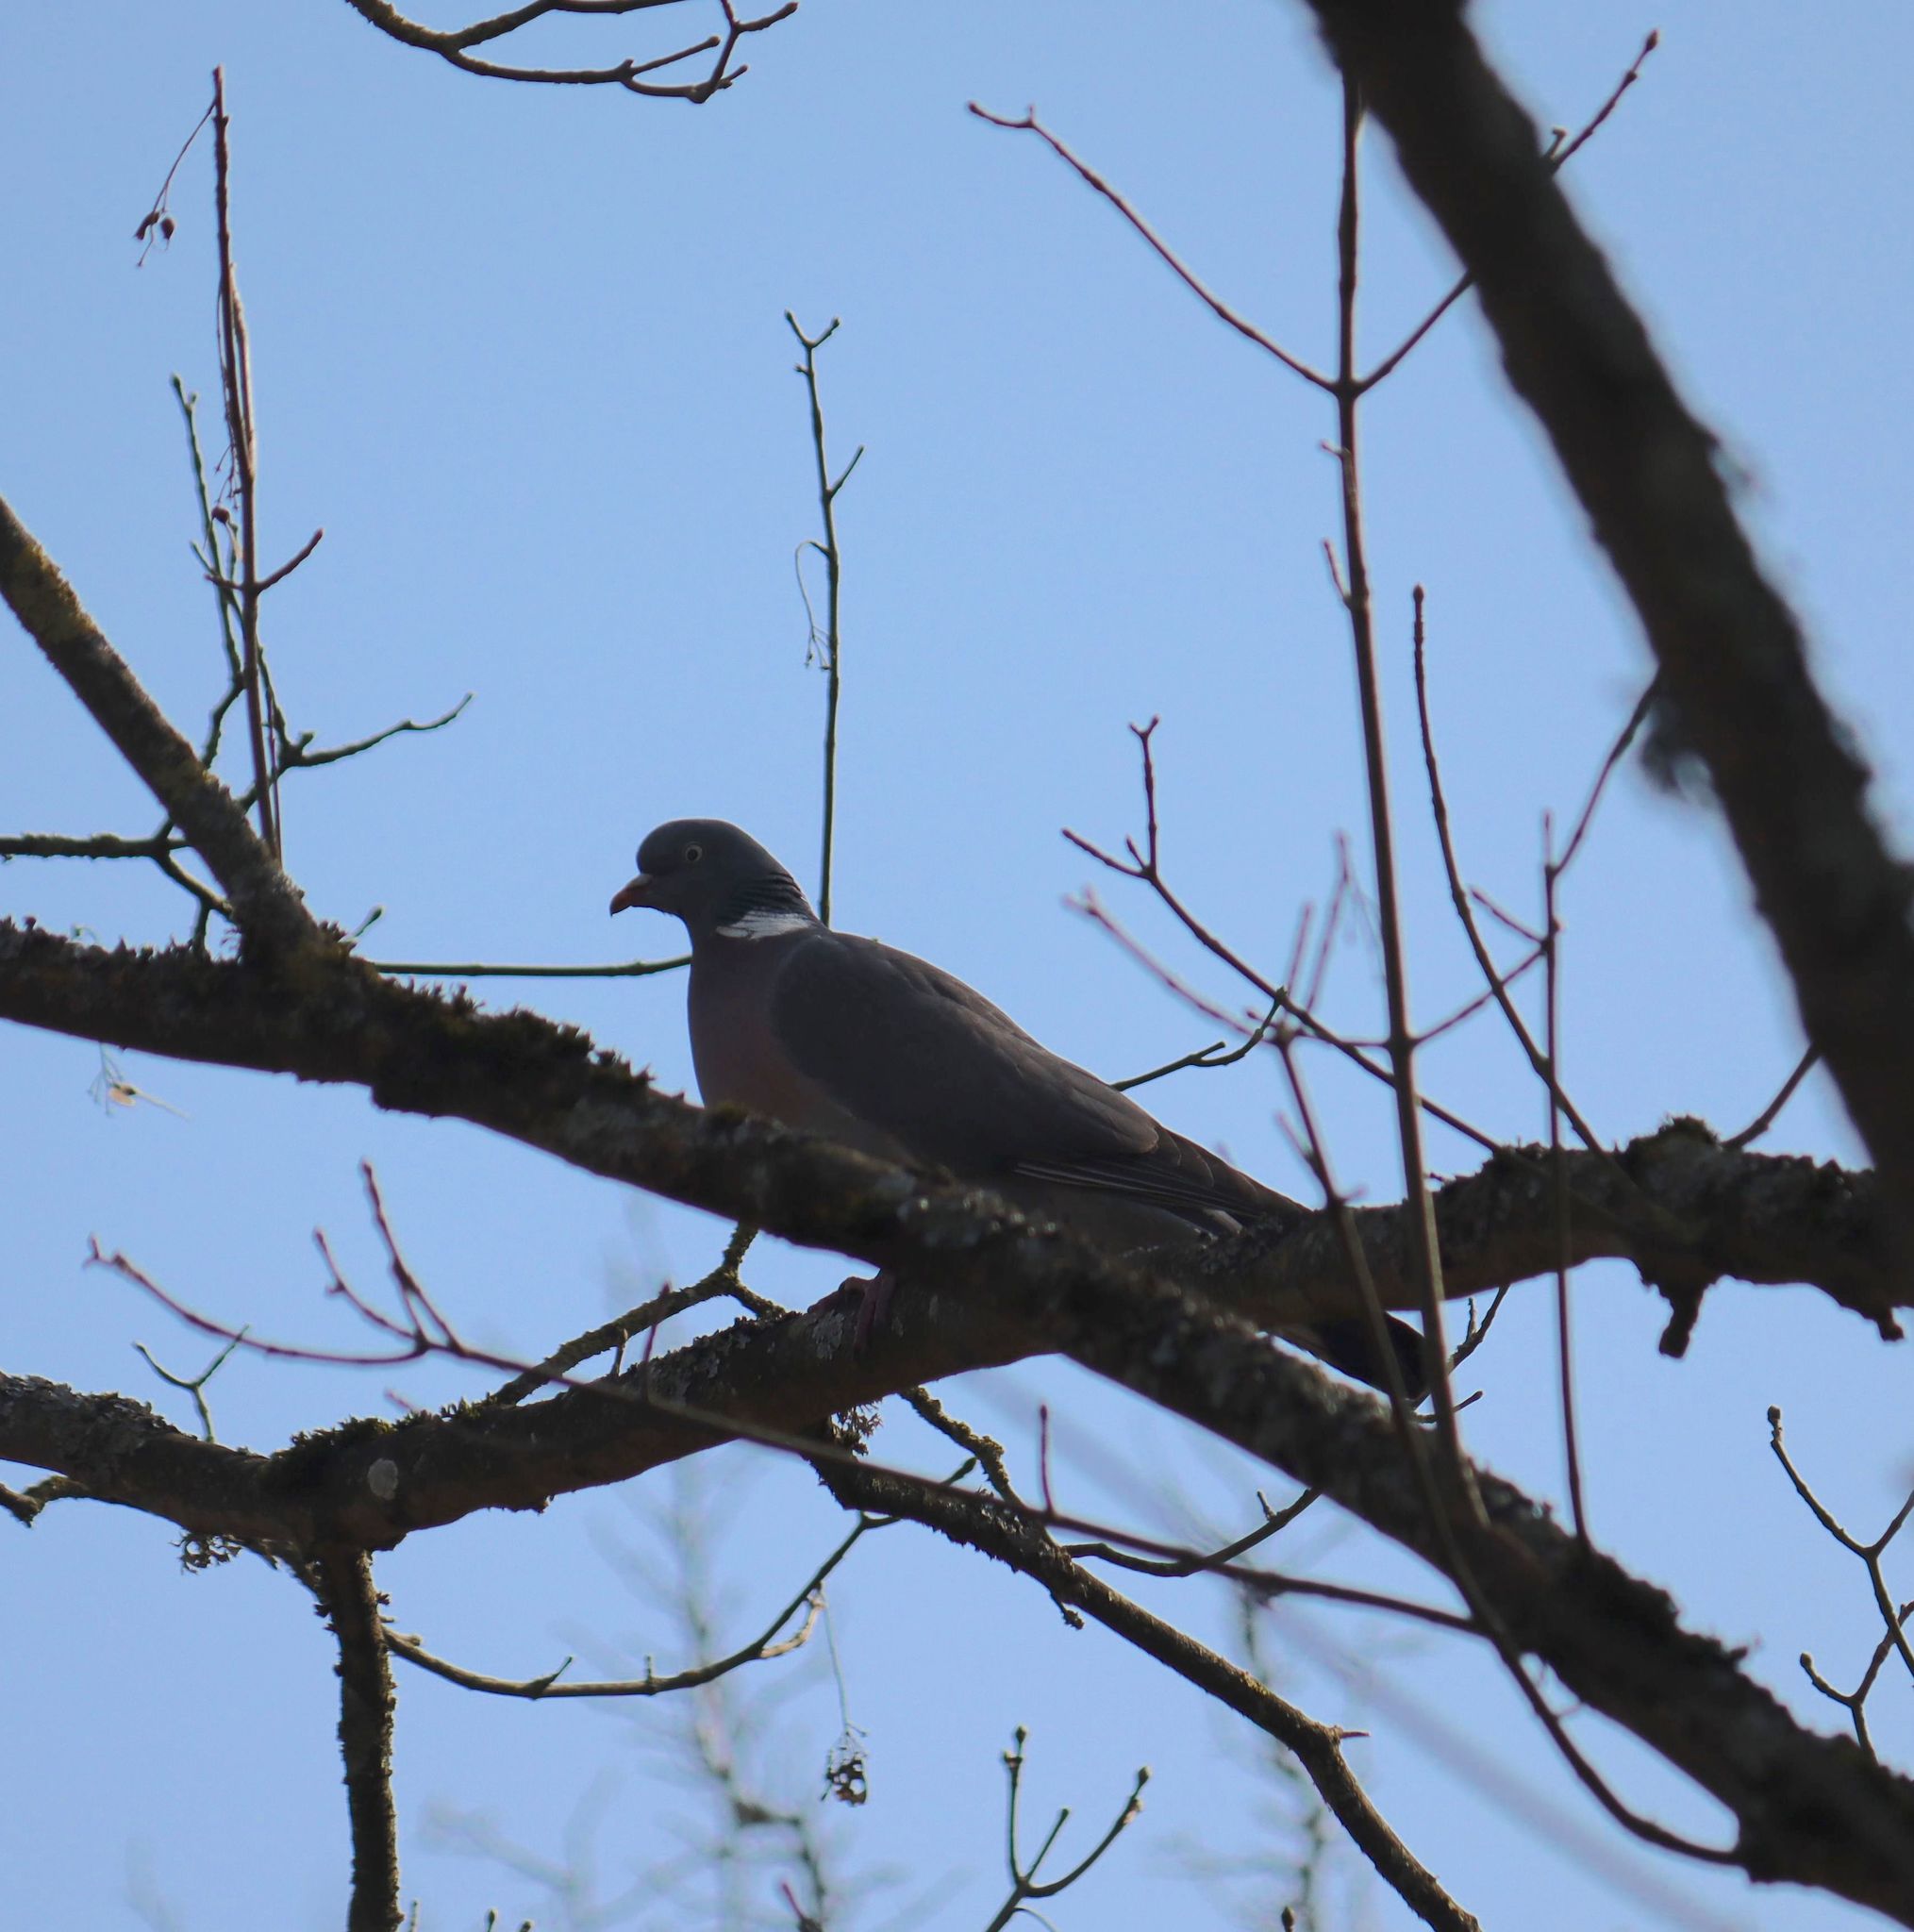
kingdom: Animalia
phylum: Chordata
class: Aves
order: Columbiformes
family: Columbidae
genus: Columba
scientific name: Columba palumbus
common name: Common wood pigeon
